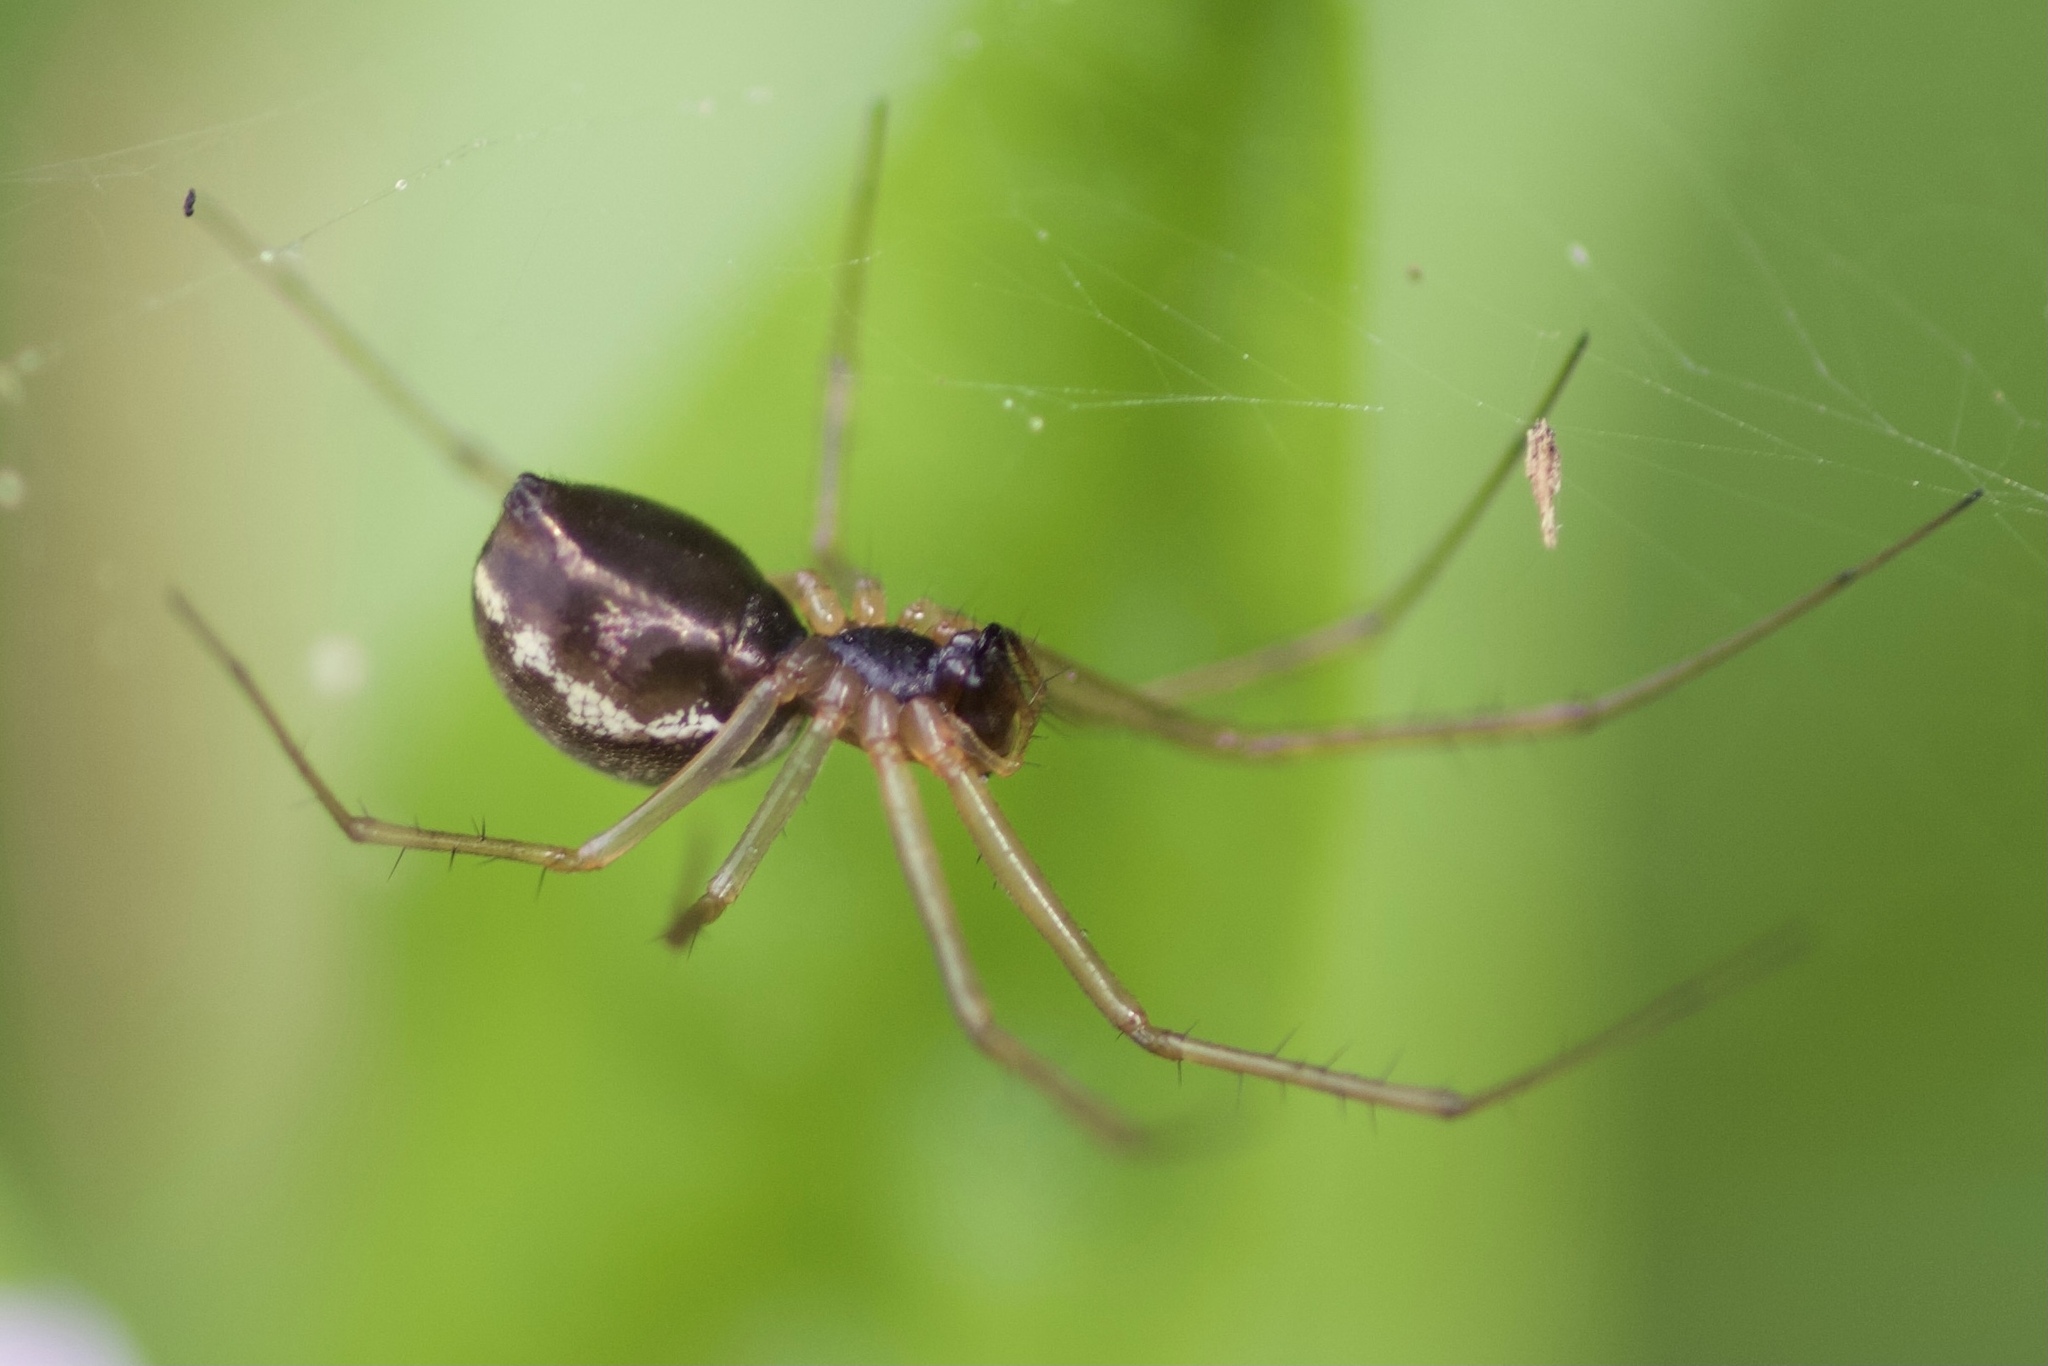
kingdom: Animalia
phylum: Arthropoda
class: Arachnida
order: Araneae
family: Linyphiidae
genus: Microlinyphia
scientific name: Microlinyphia dana
